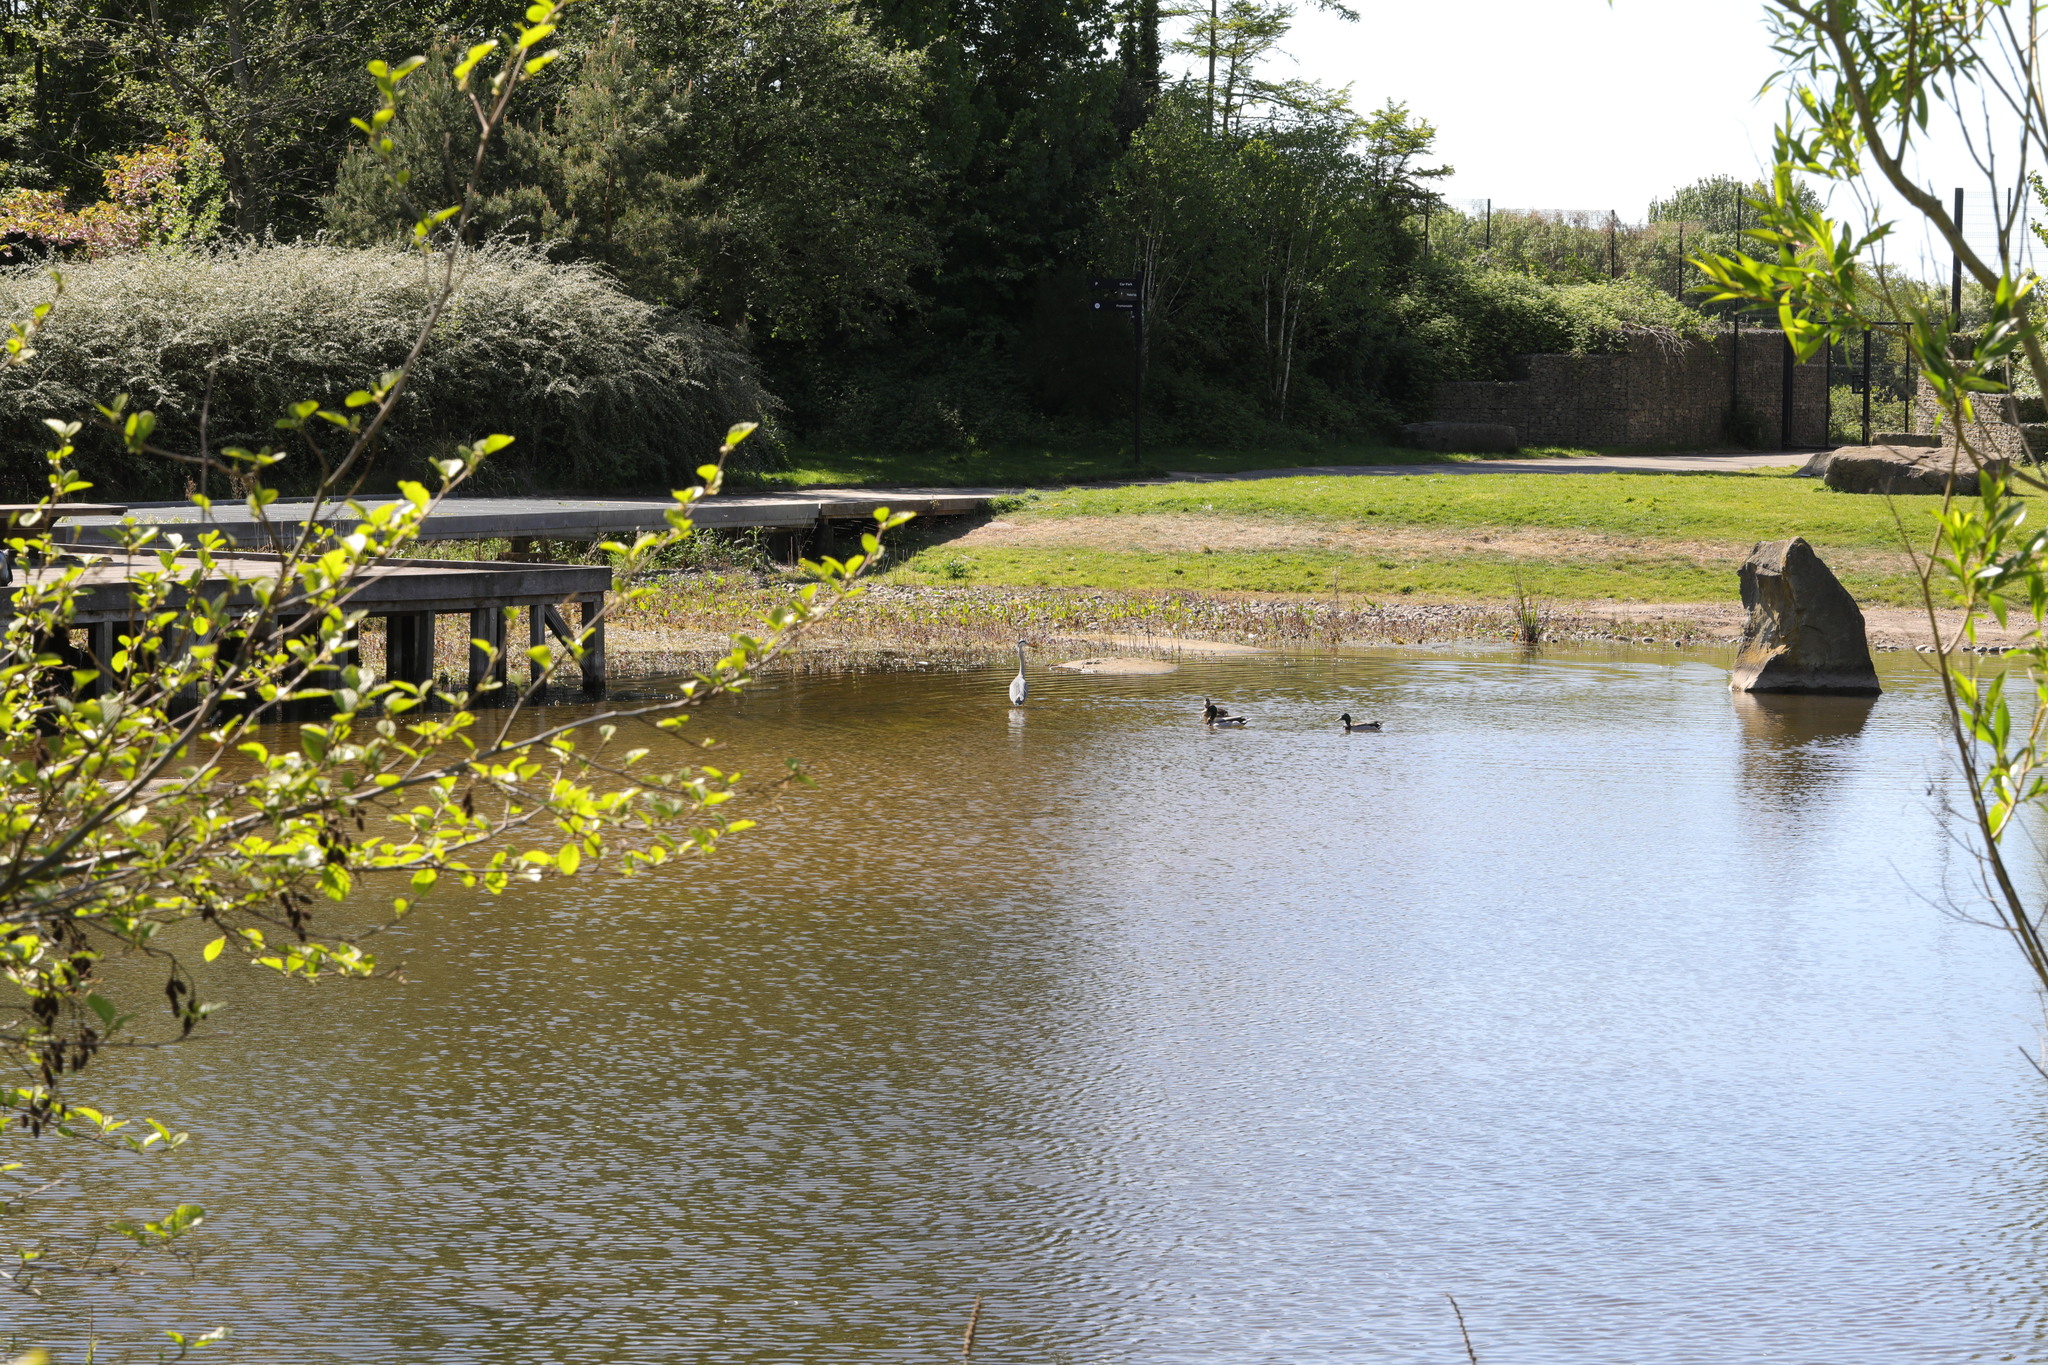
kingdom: Animalia
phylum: Chordata
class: Aves
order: Pelecaniformes
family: Ardeidae
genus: Ardea
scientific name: Ardea cinerea
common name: Grey heron
